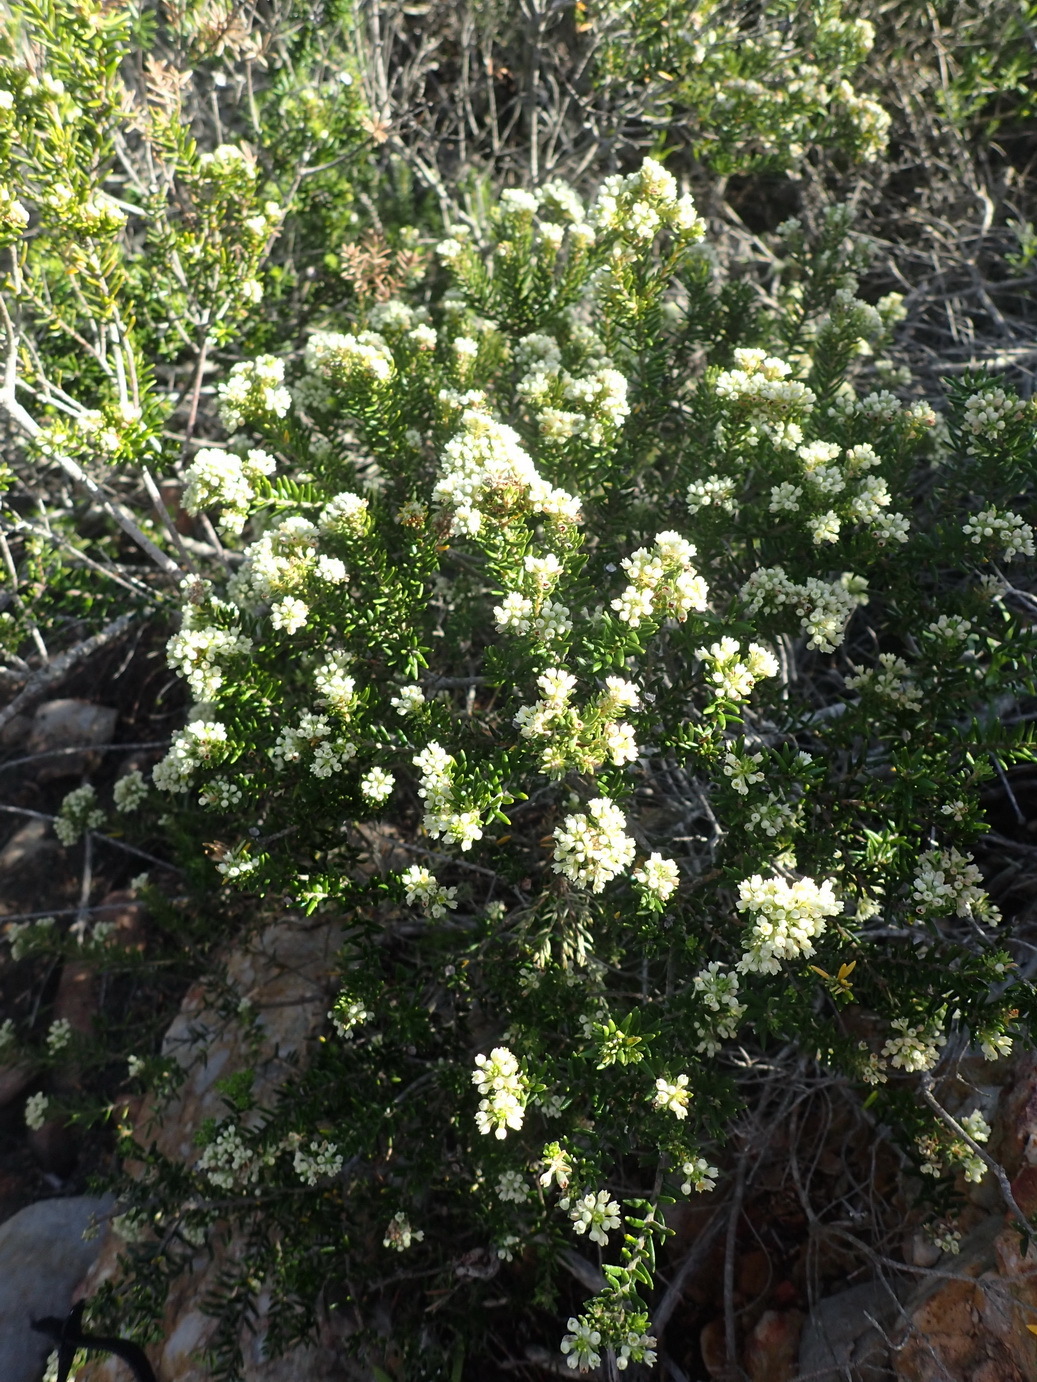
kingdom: Plantae
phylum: Tracheophyta
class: Magnoliopsida
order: Rosales
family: Rhamnaceae
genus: Phylica
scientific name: Phylica axillaris
